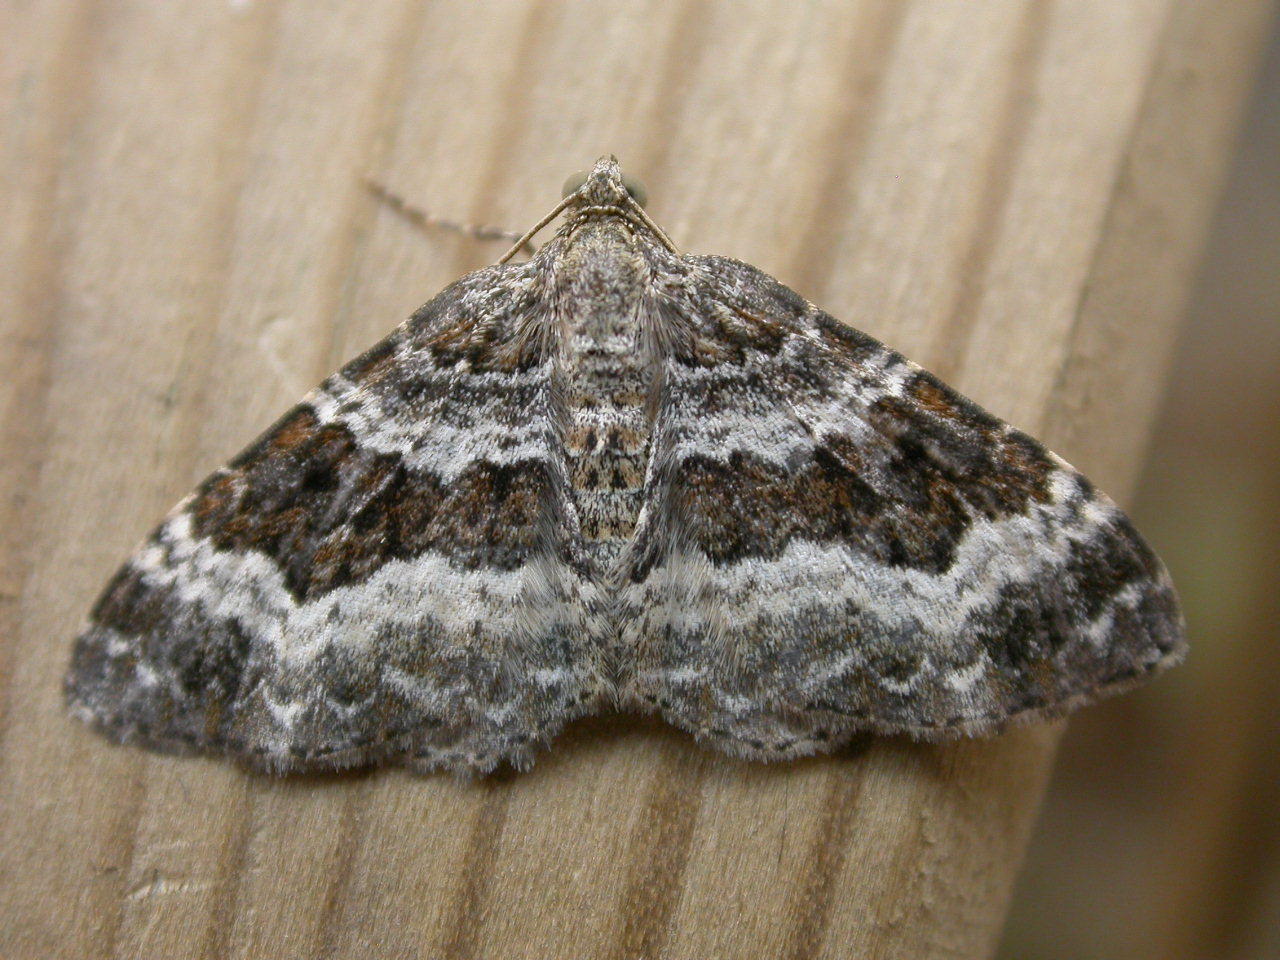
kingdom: Animalia
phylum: Arthropoda
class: Insecta
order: Lepidoptera
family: Geometridae
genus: Epirrhoe
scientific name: Epirrhoe alternata
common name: Common carpet
